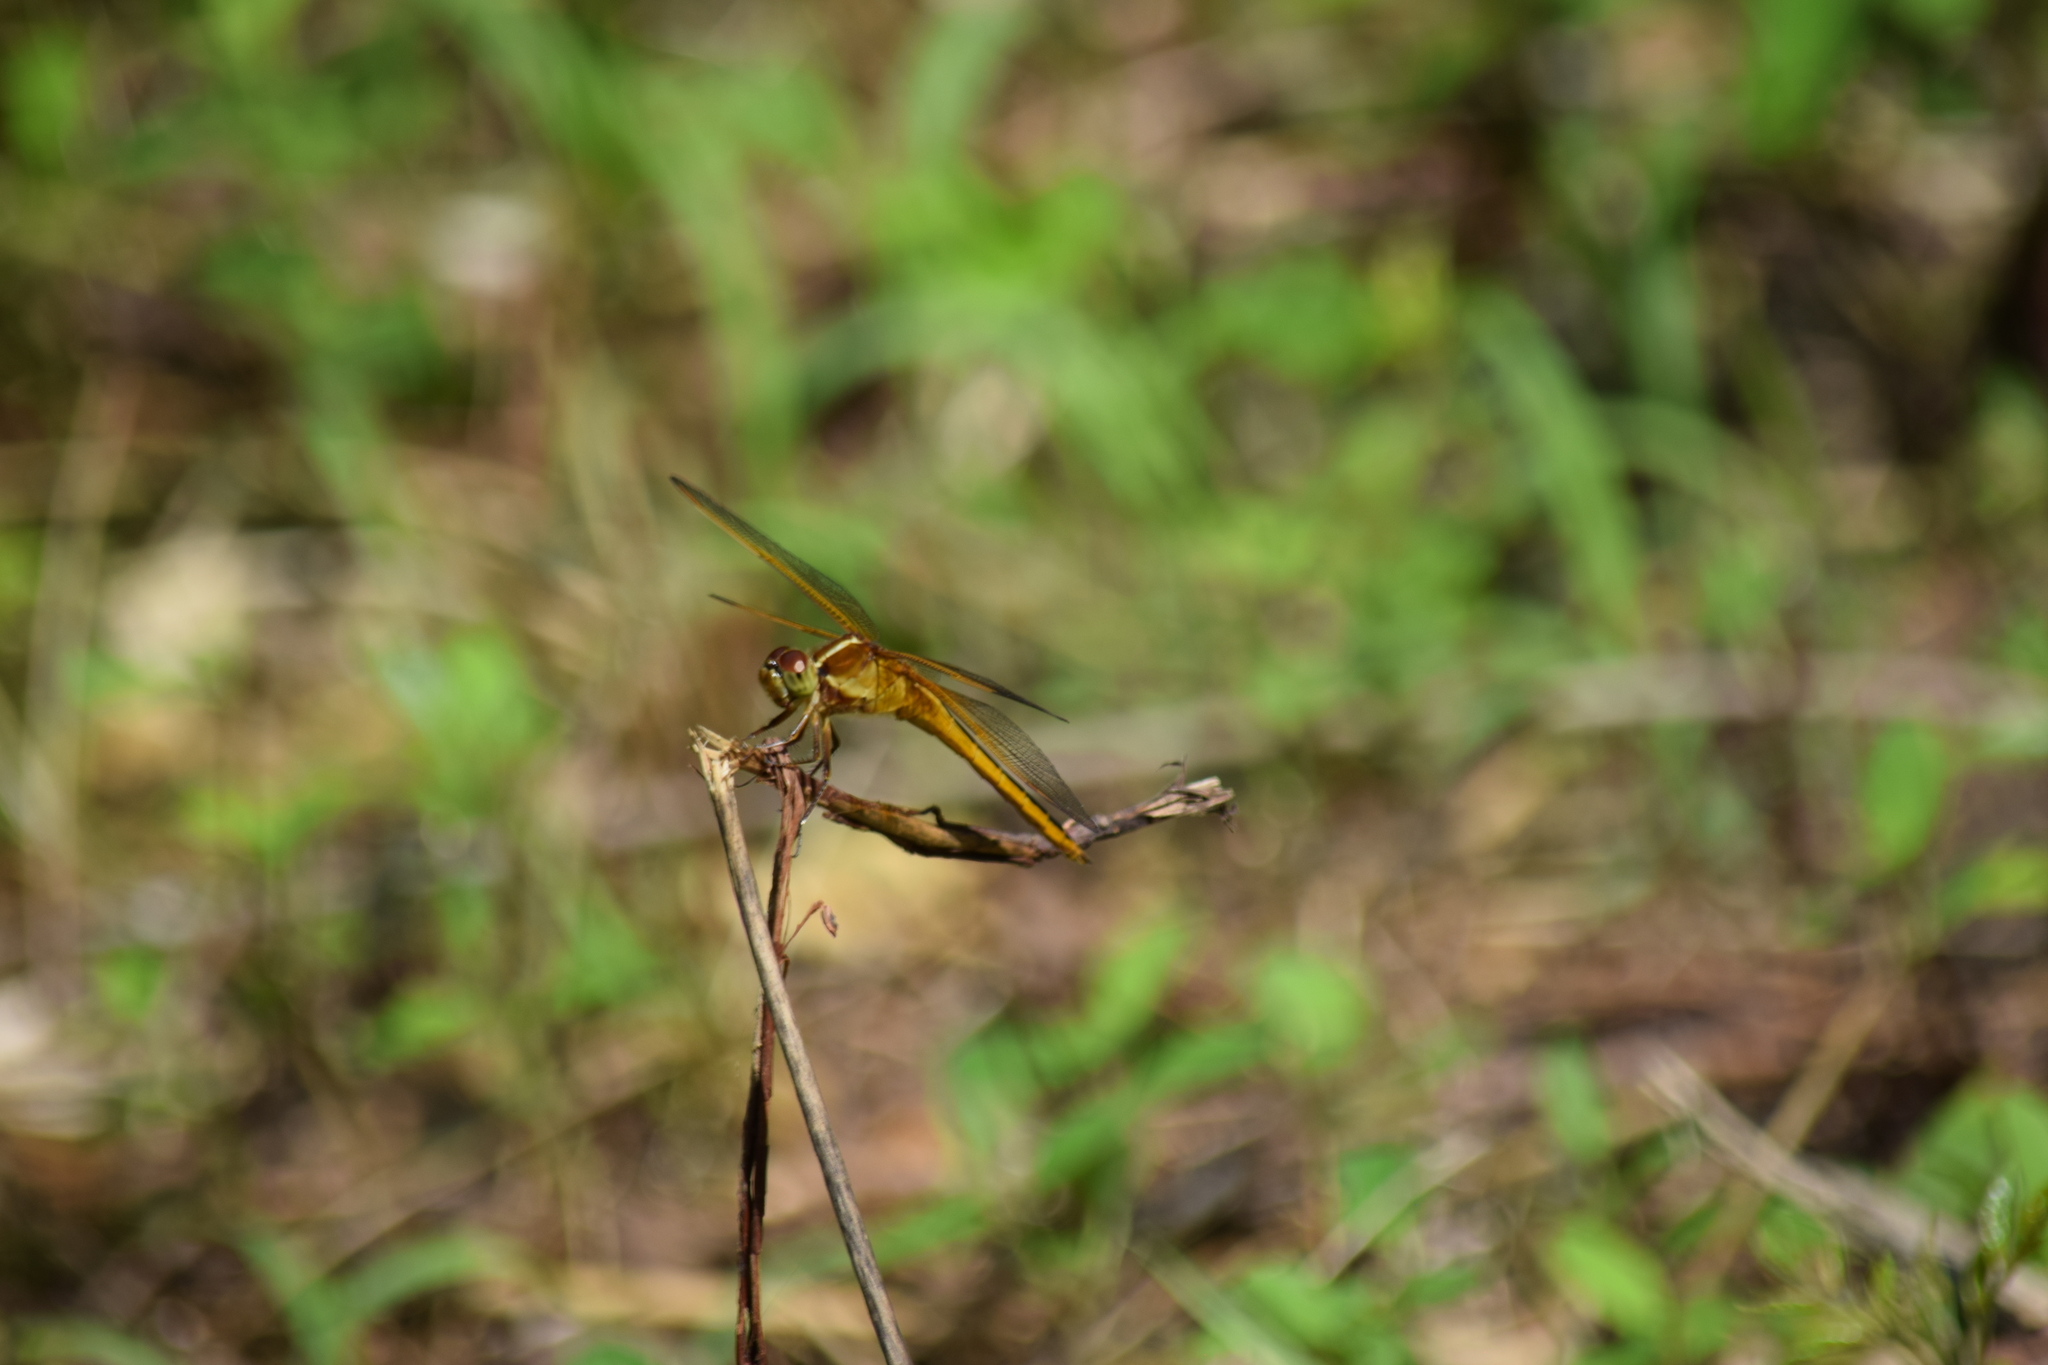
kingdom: Animalia
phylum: Arthropoda
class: Insecta
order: Odonata
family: Libellulidae
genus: Libellula
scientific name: Libellula needhami
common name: Needham's skimmer
